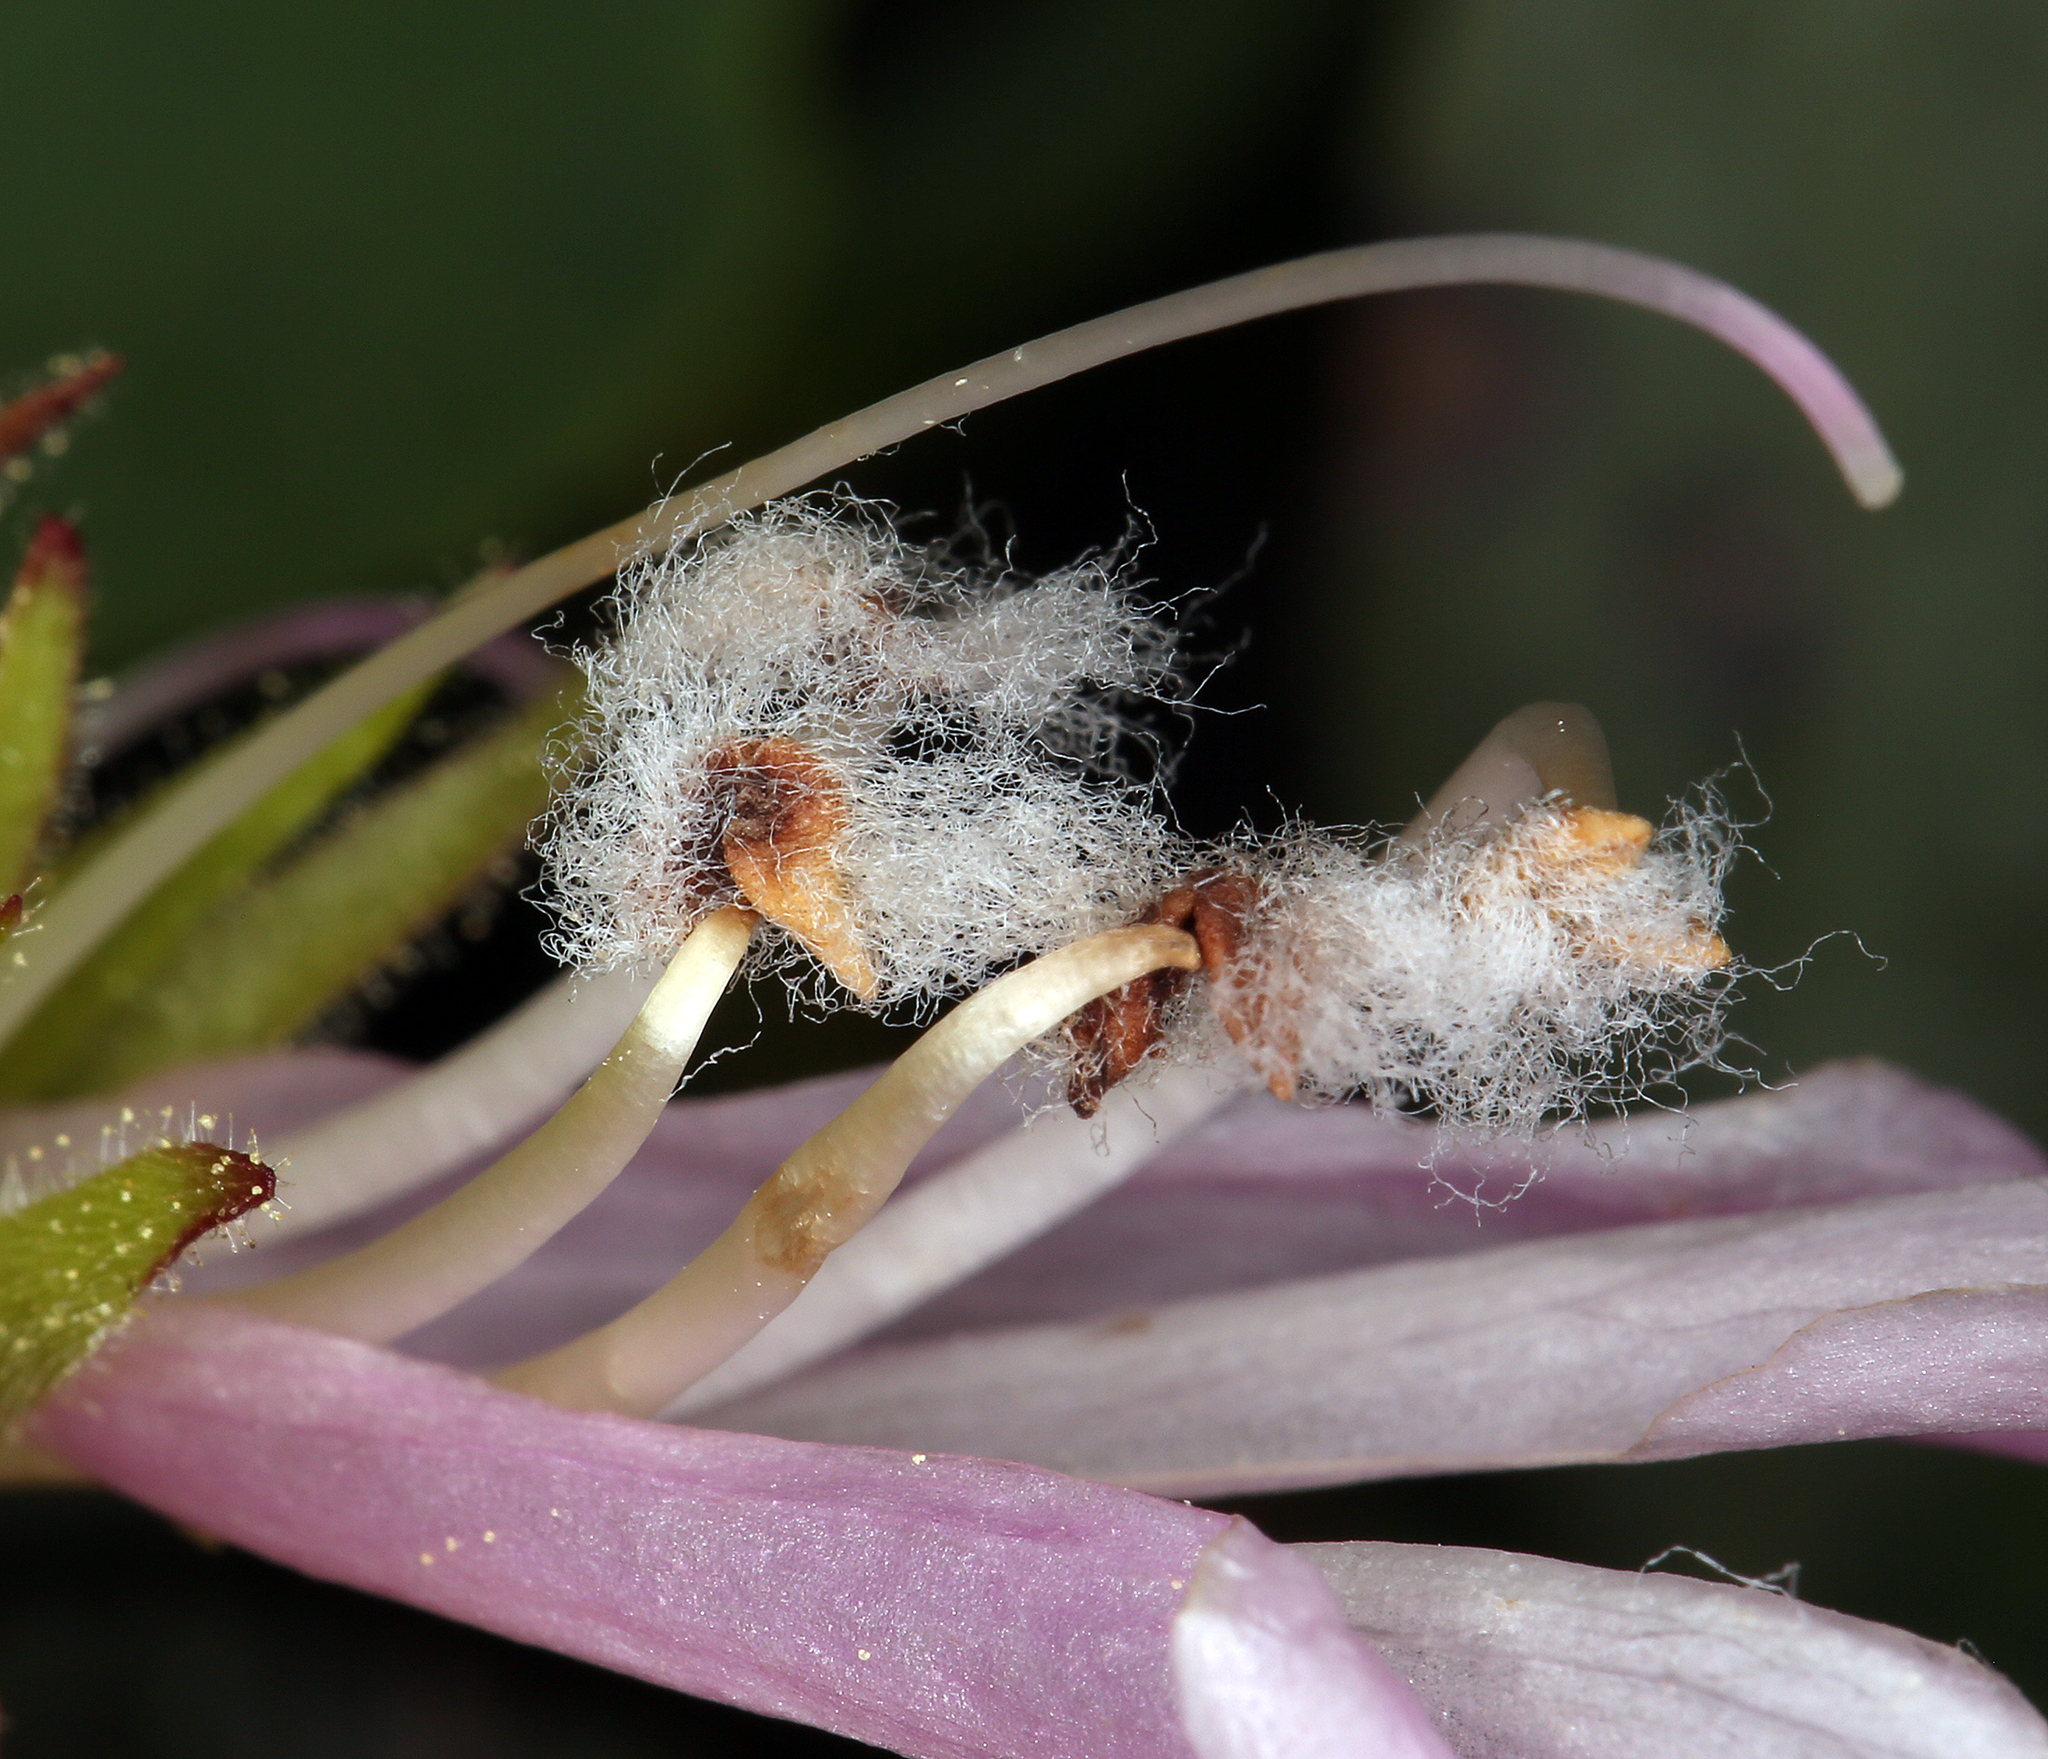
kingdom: Plantae
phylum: Tracheophyta
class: Magnoliopsida
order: Lamiales
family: Plantaginaceae
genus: Penstemon
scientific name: Penstemon rupicola
